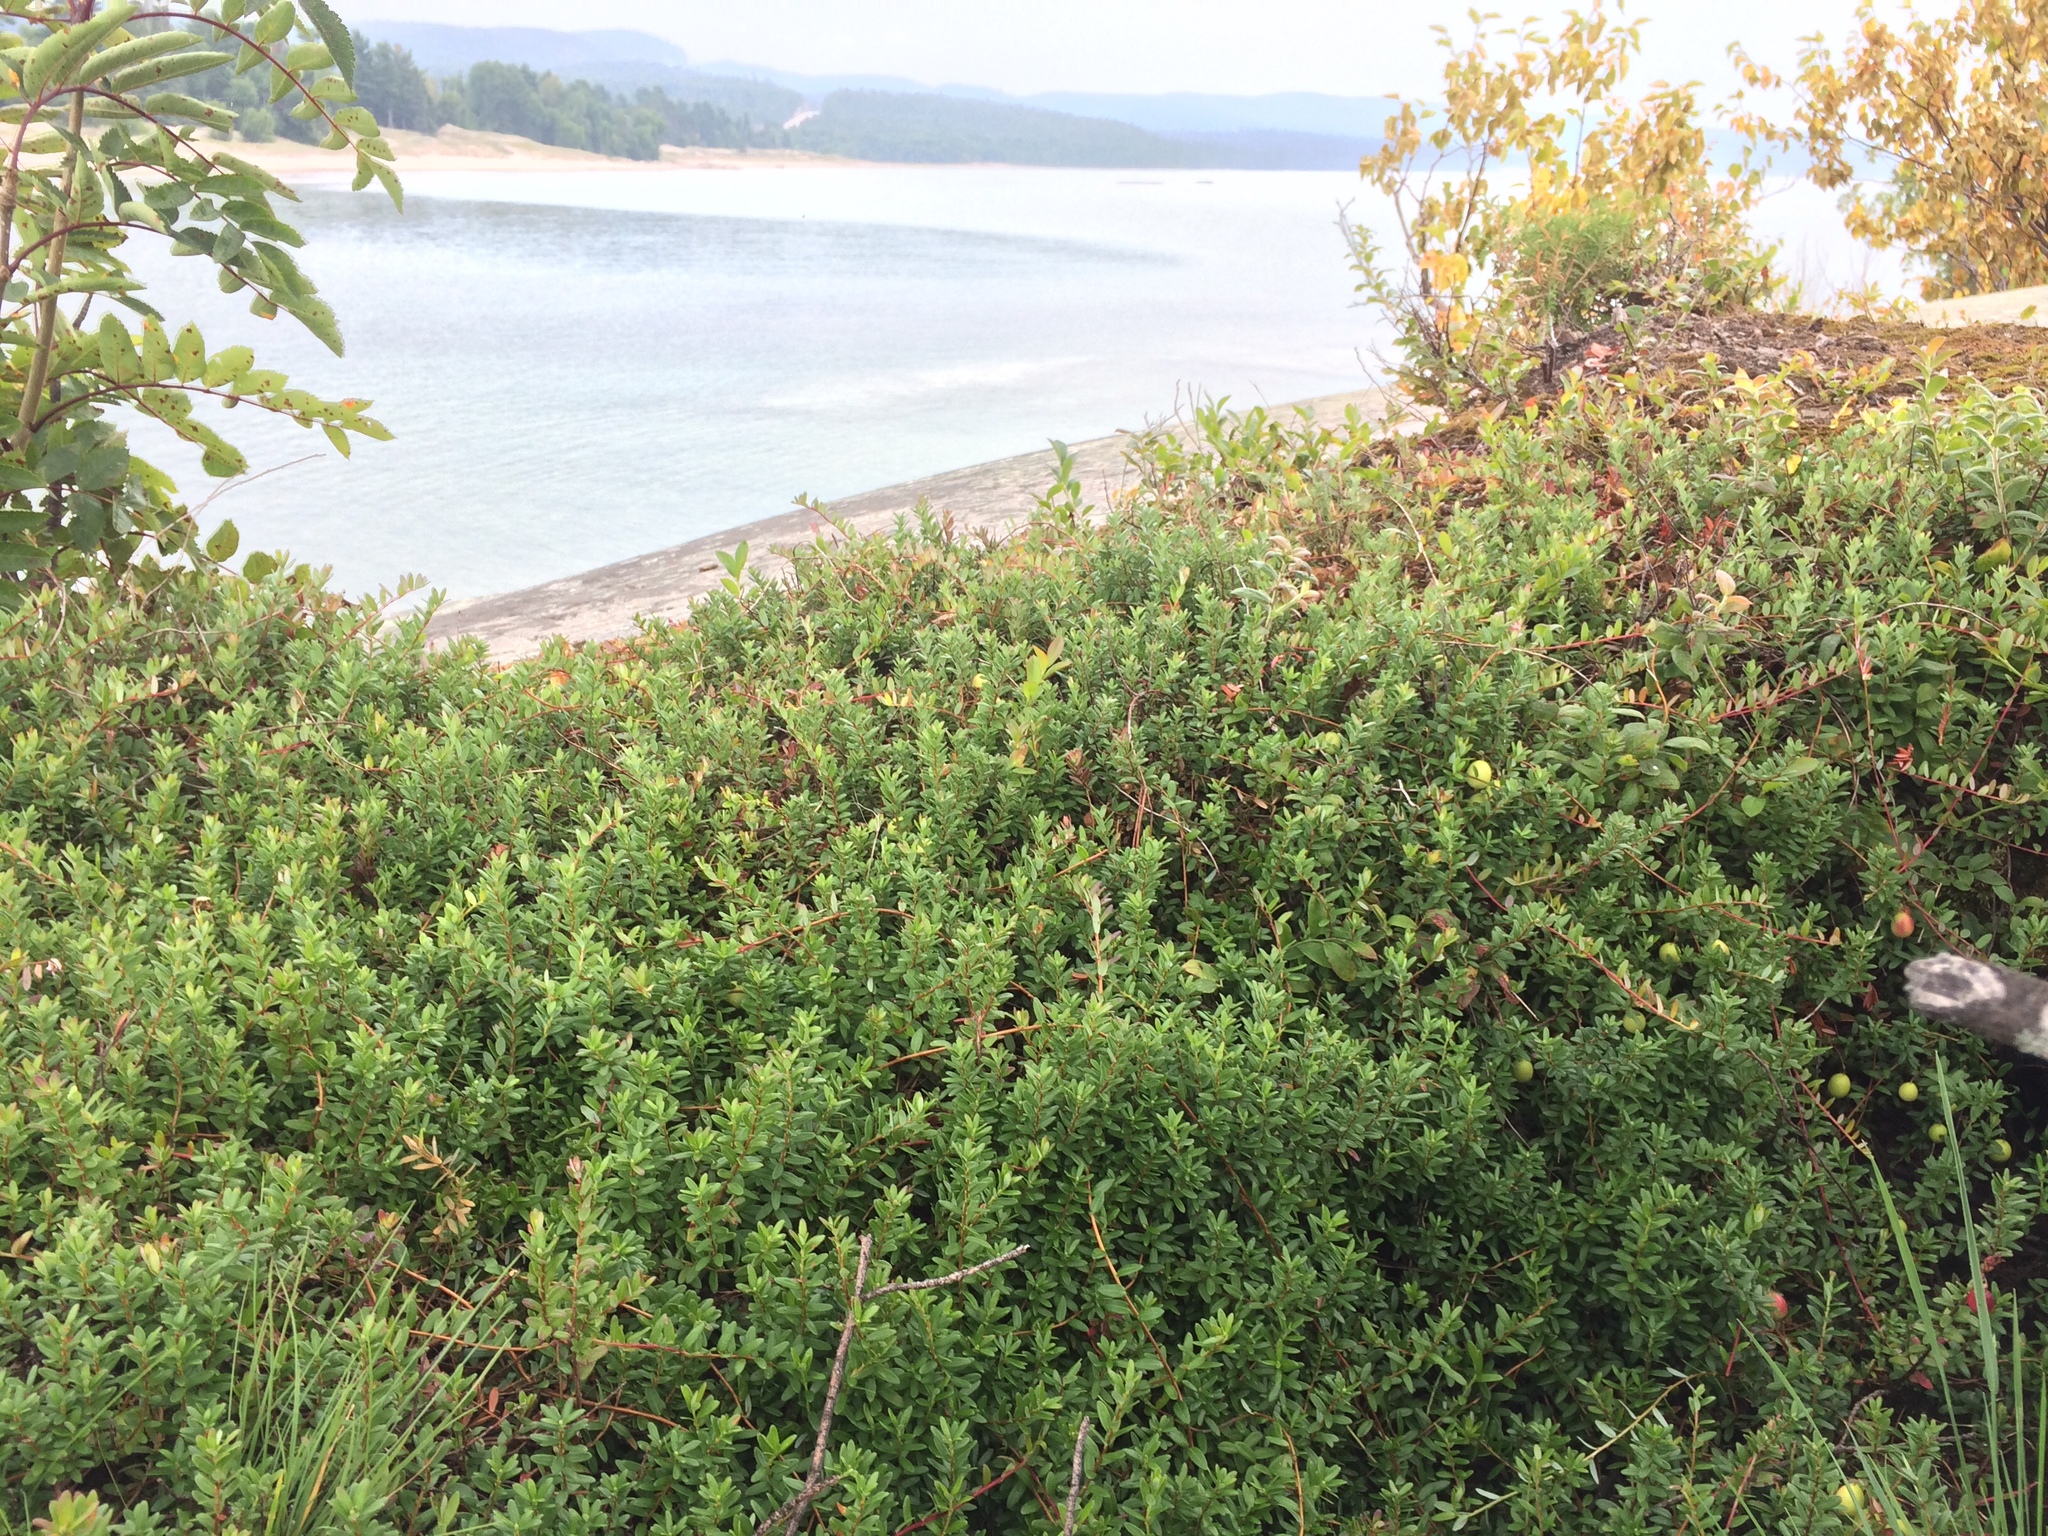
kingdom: Plantae
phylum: Tracheophyta
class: Magnoliopsida
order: Ericales
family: Ericaceae
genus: Vaccinium
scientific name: Vaccinium macrocarpon
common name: American cranberry
